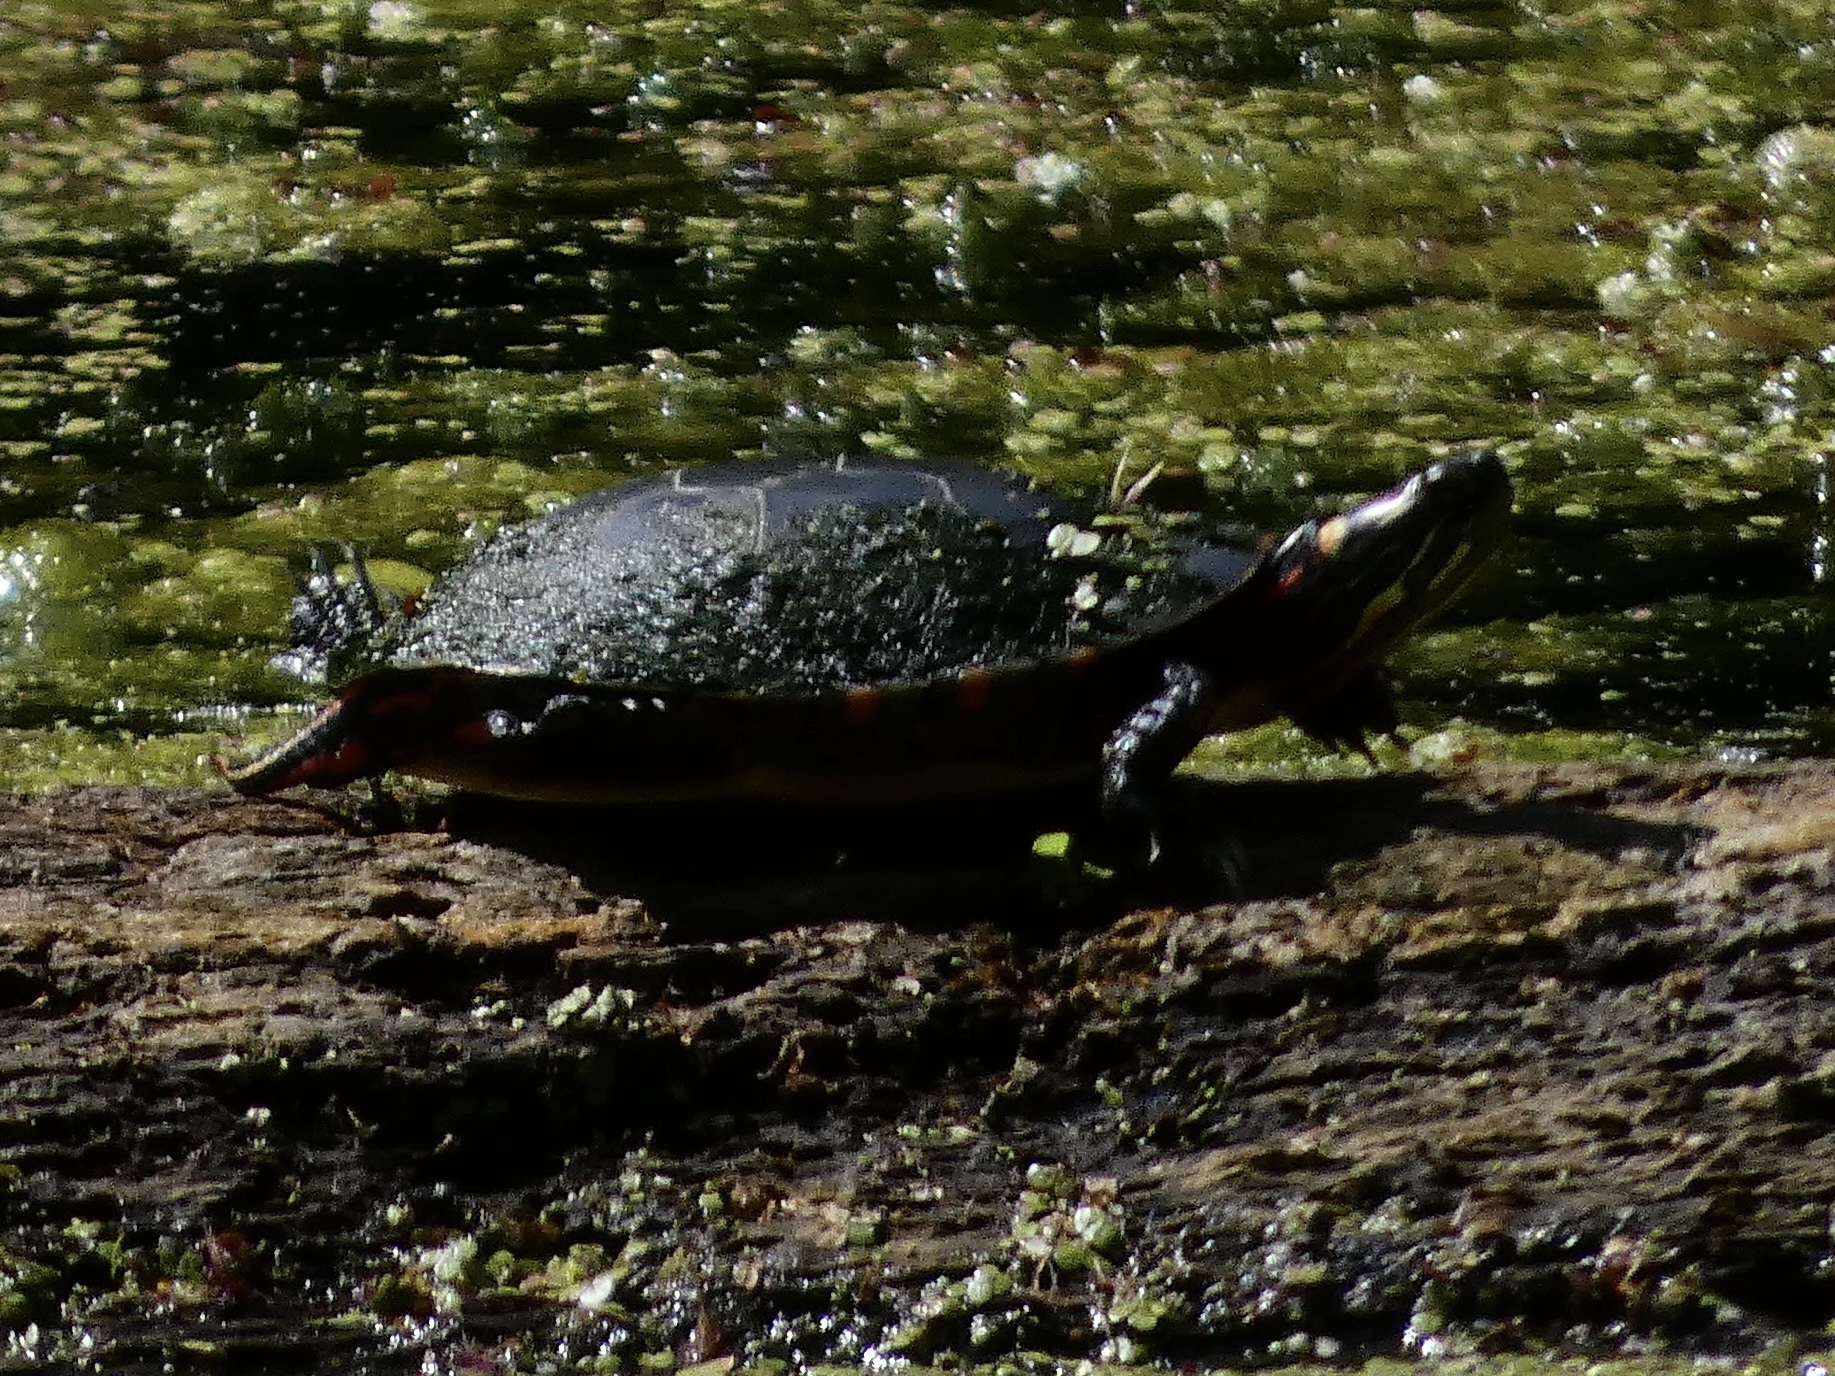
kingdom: Animalia
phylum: Chordata
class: Testudines
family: Emydidae
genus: Chrysemys
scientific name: Chrysemys picta
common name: Painted turtle
